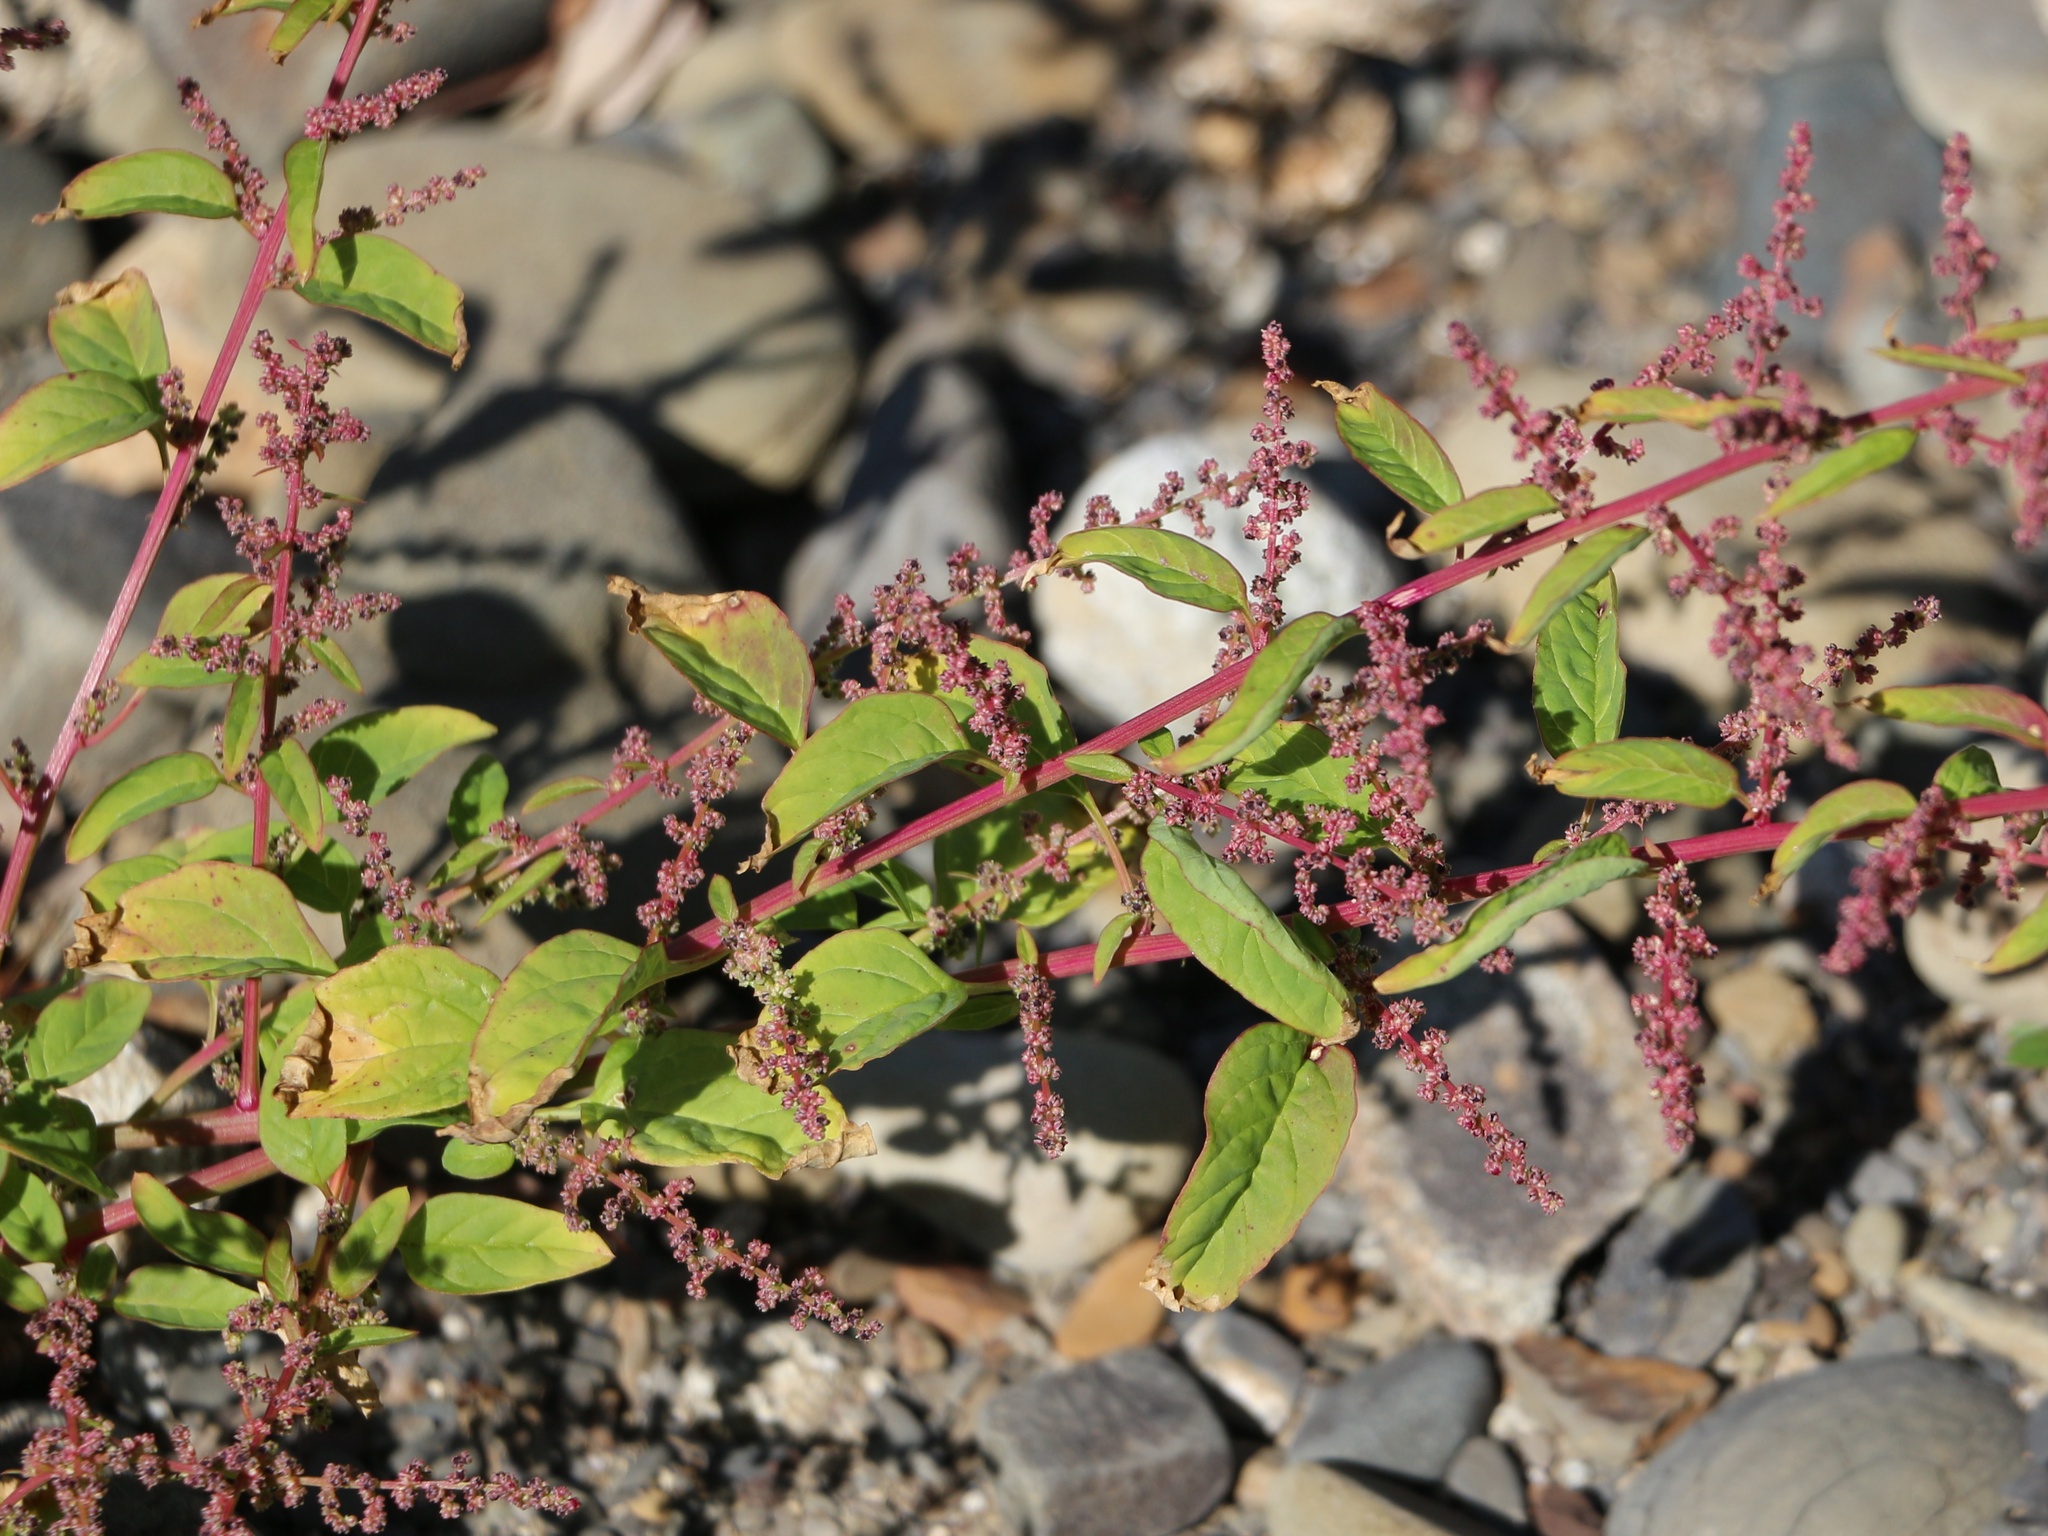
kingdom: Plantae
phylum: Tracheophyta
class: Magnoliopsida
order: Caryophyllales
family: Amaranthaceae
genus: Lipandra
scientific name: Lipandra polysperma
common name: Many-seed goosefoot
